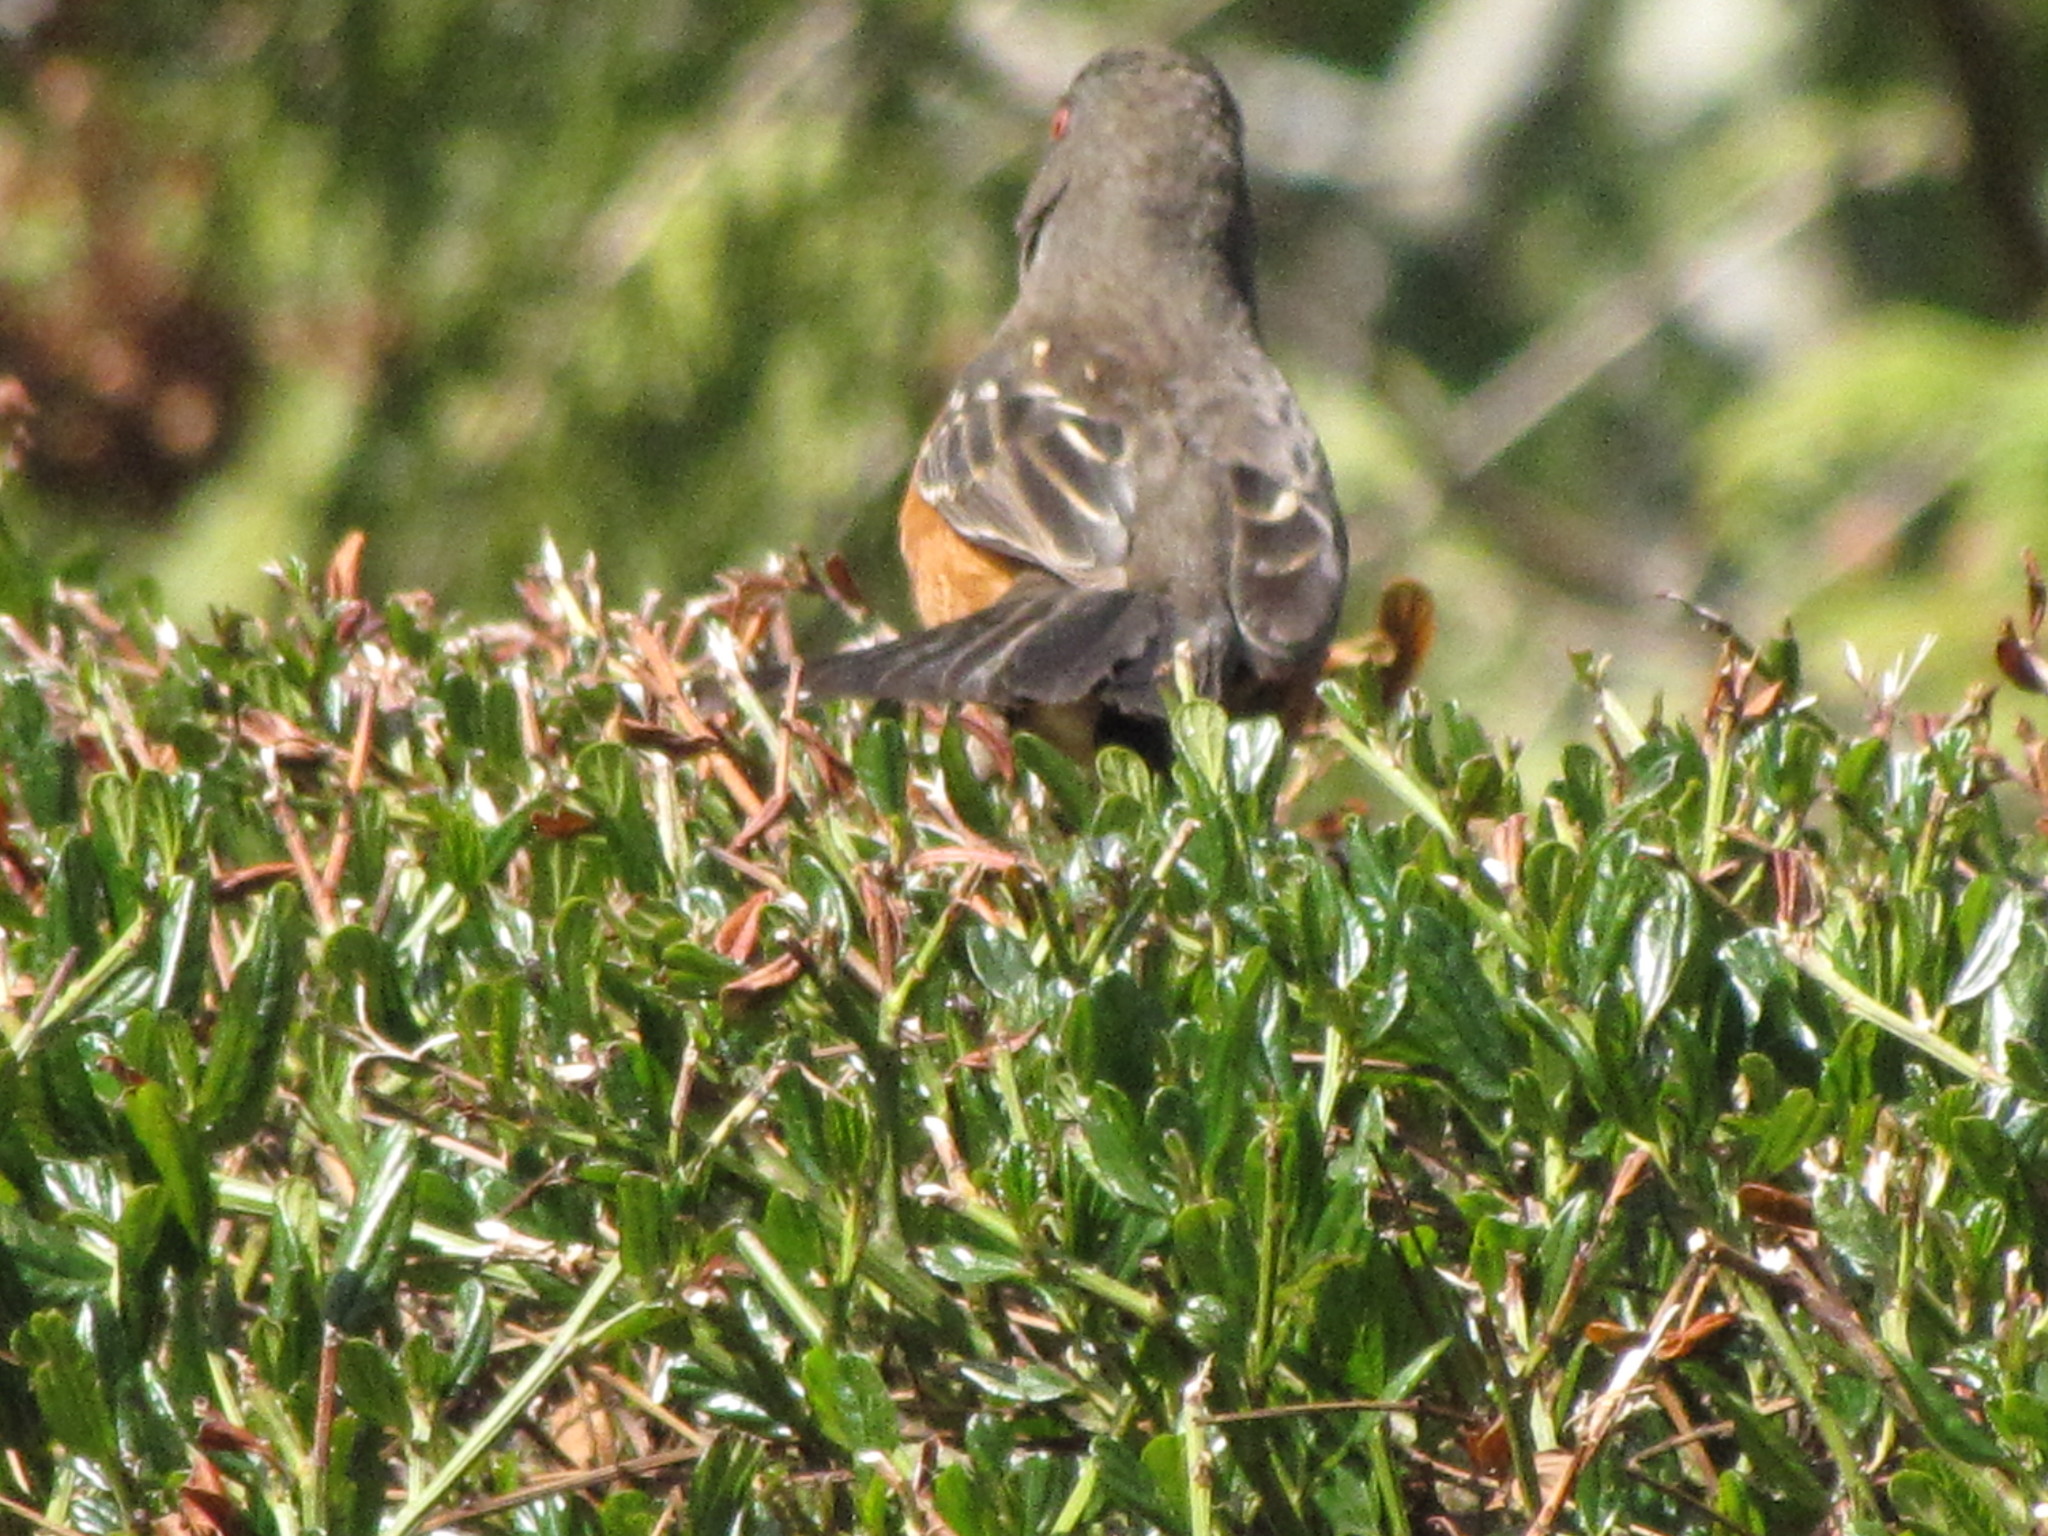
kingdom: Animalia
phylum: Chordata
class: Aves
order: Passeriformes
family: Passerellidae
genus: Pipilo
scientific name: Pipilo maculatus
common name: Spotted towhee
